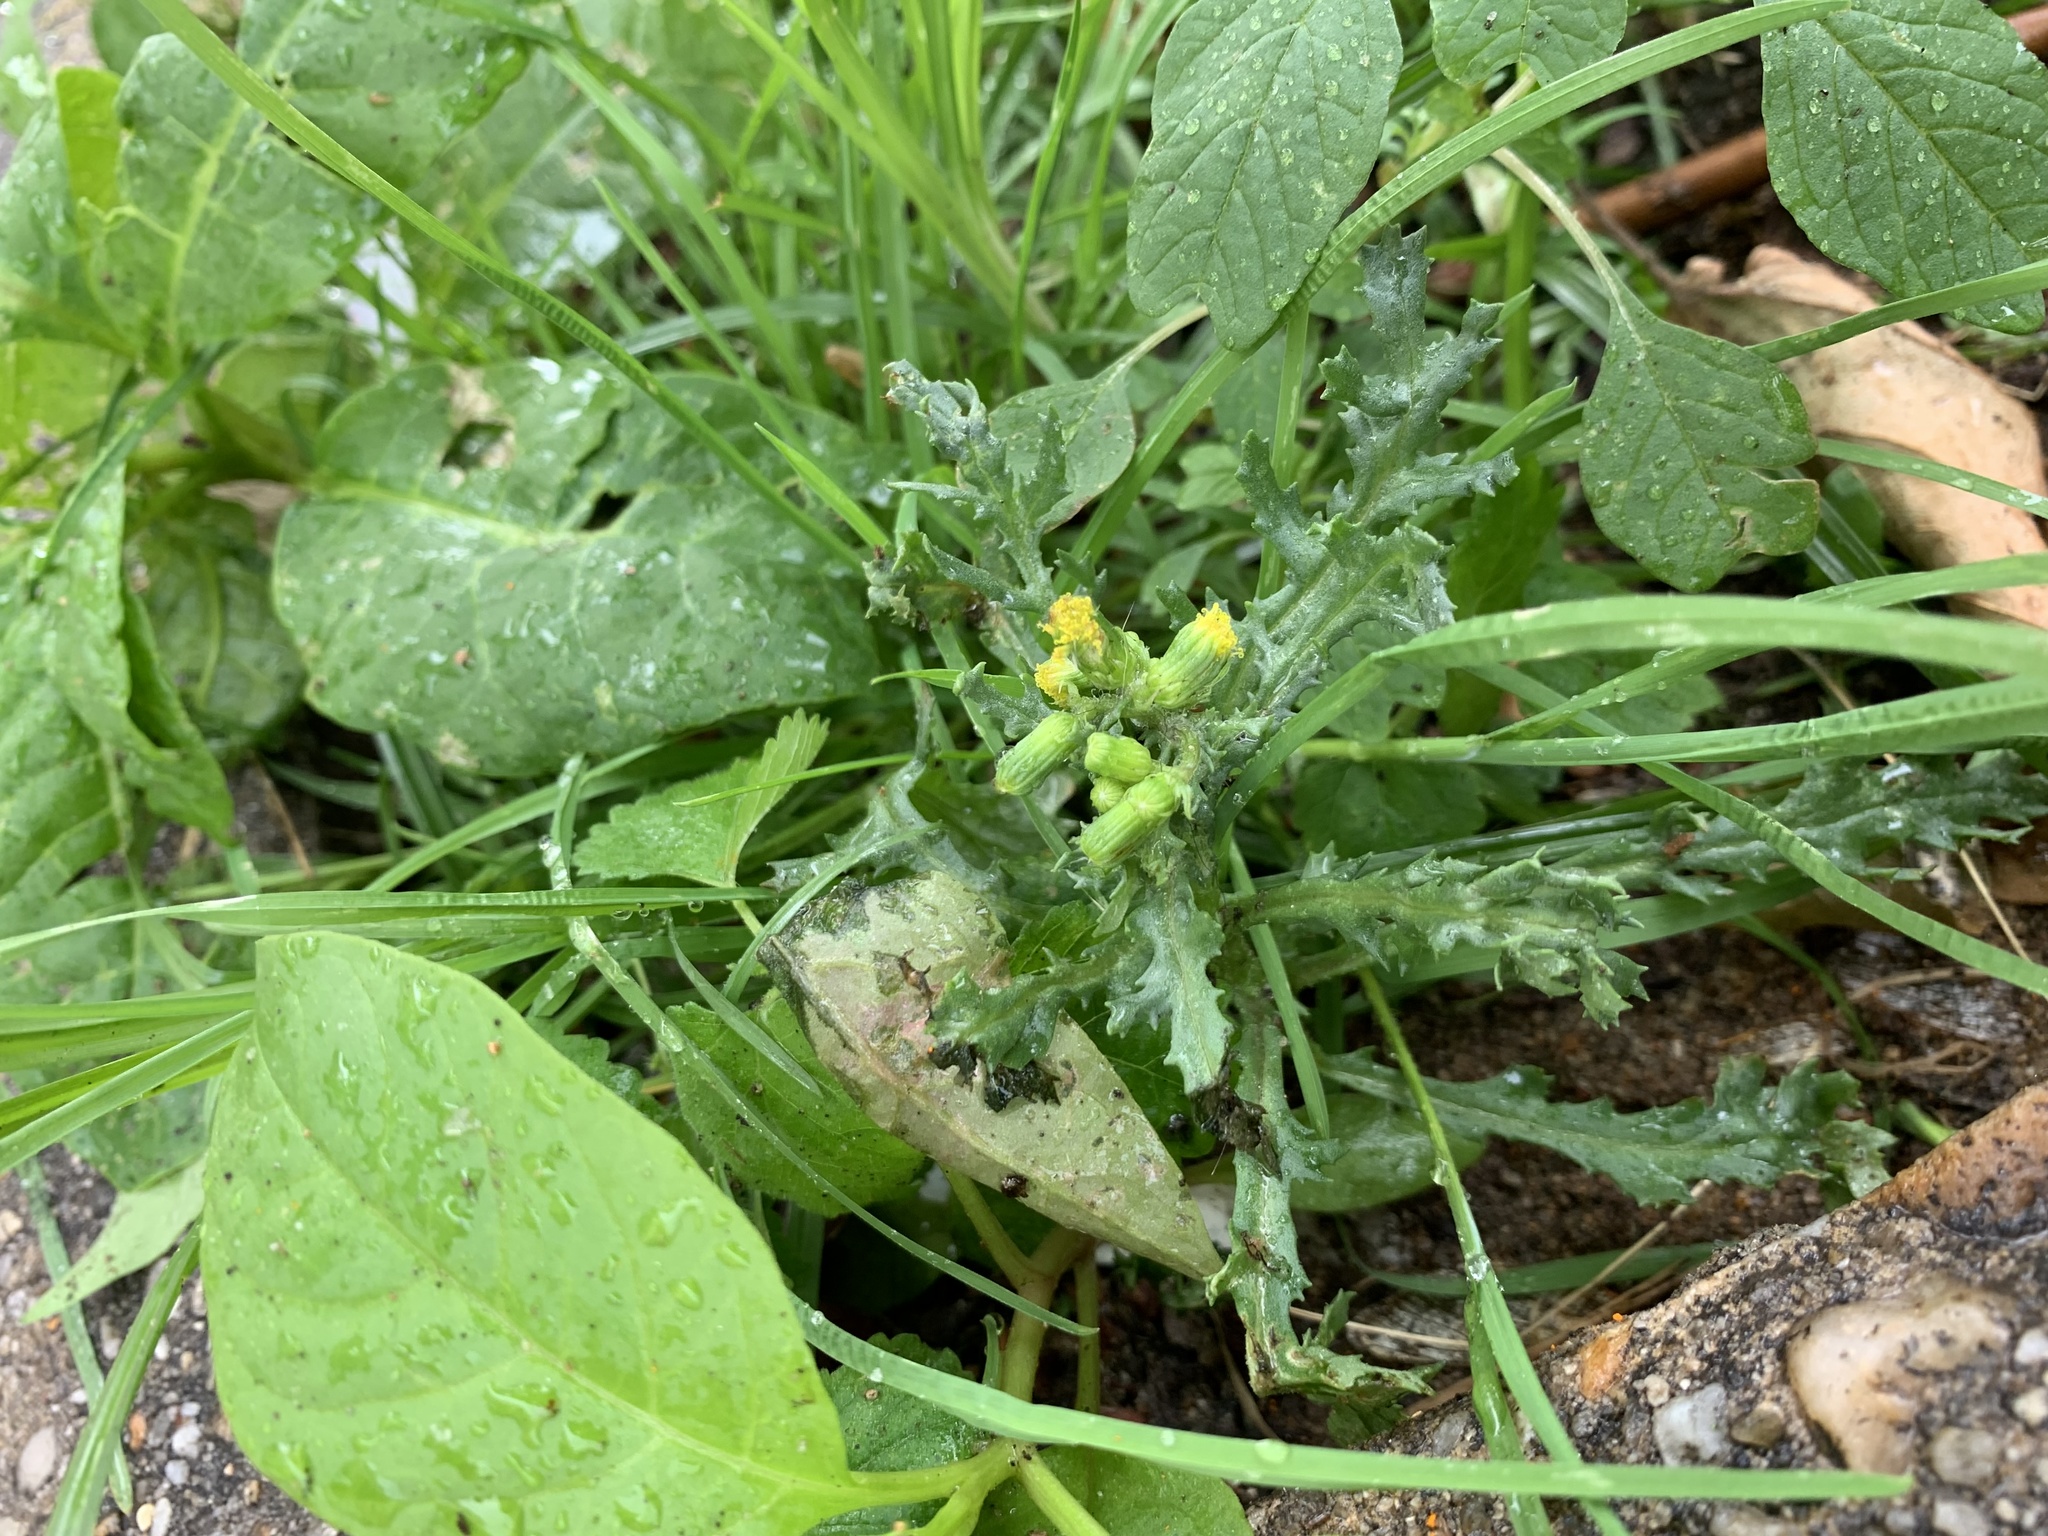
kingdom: Plantae
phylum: Tracheophyta
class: Magnoliopsida
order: Asterales
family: Asteraceae
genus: Senecio
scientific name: Senecio vulgaris
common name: Old-man-in-the-spring
